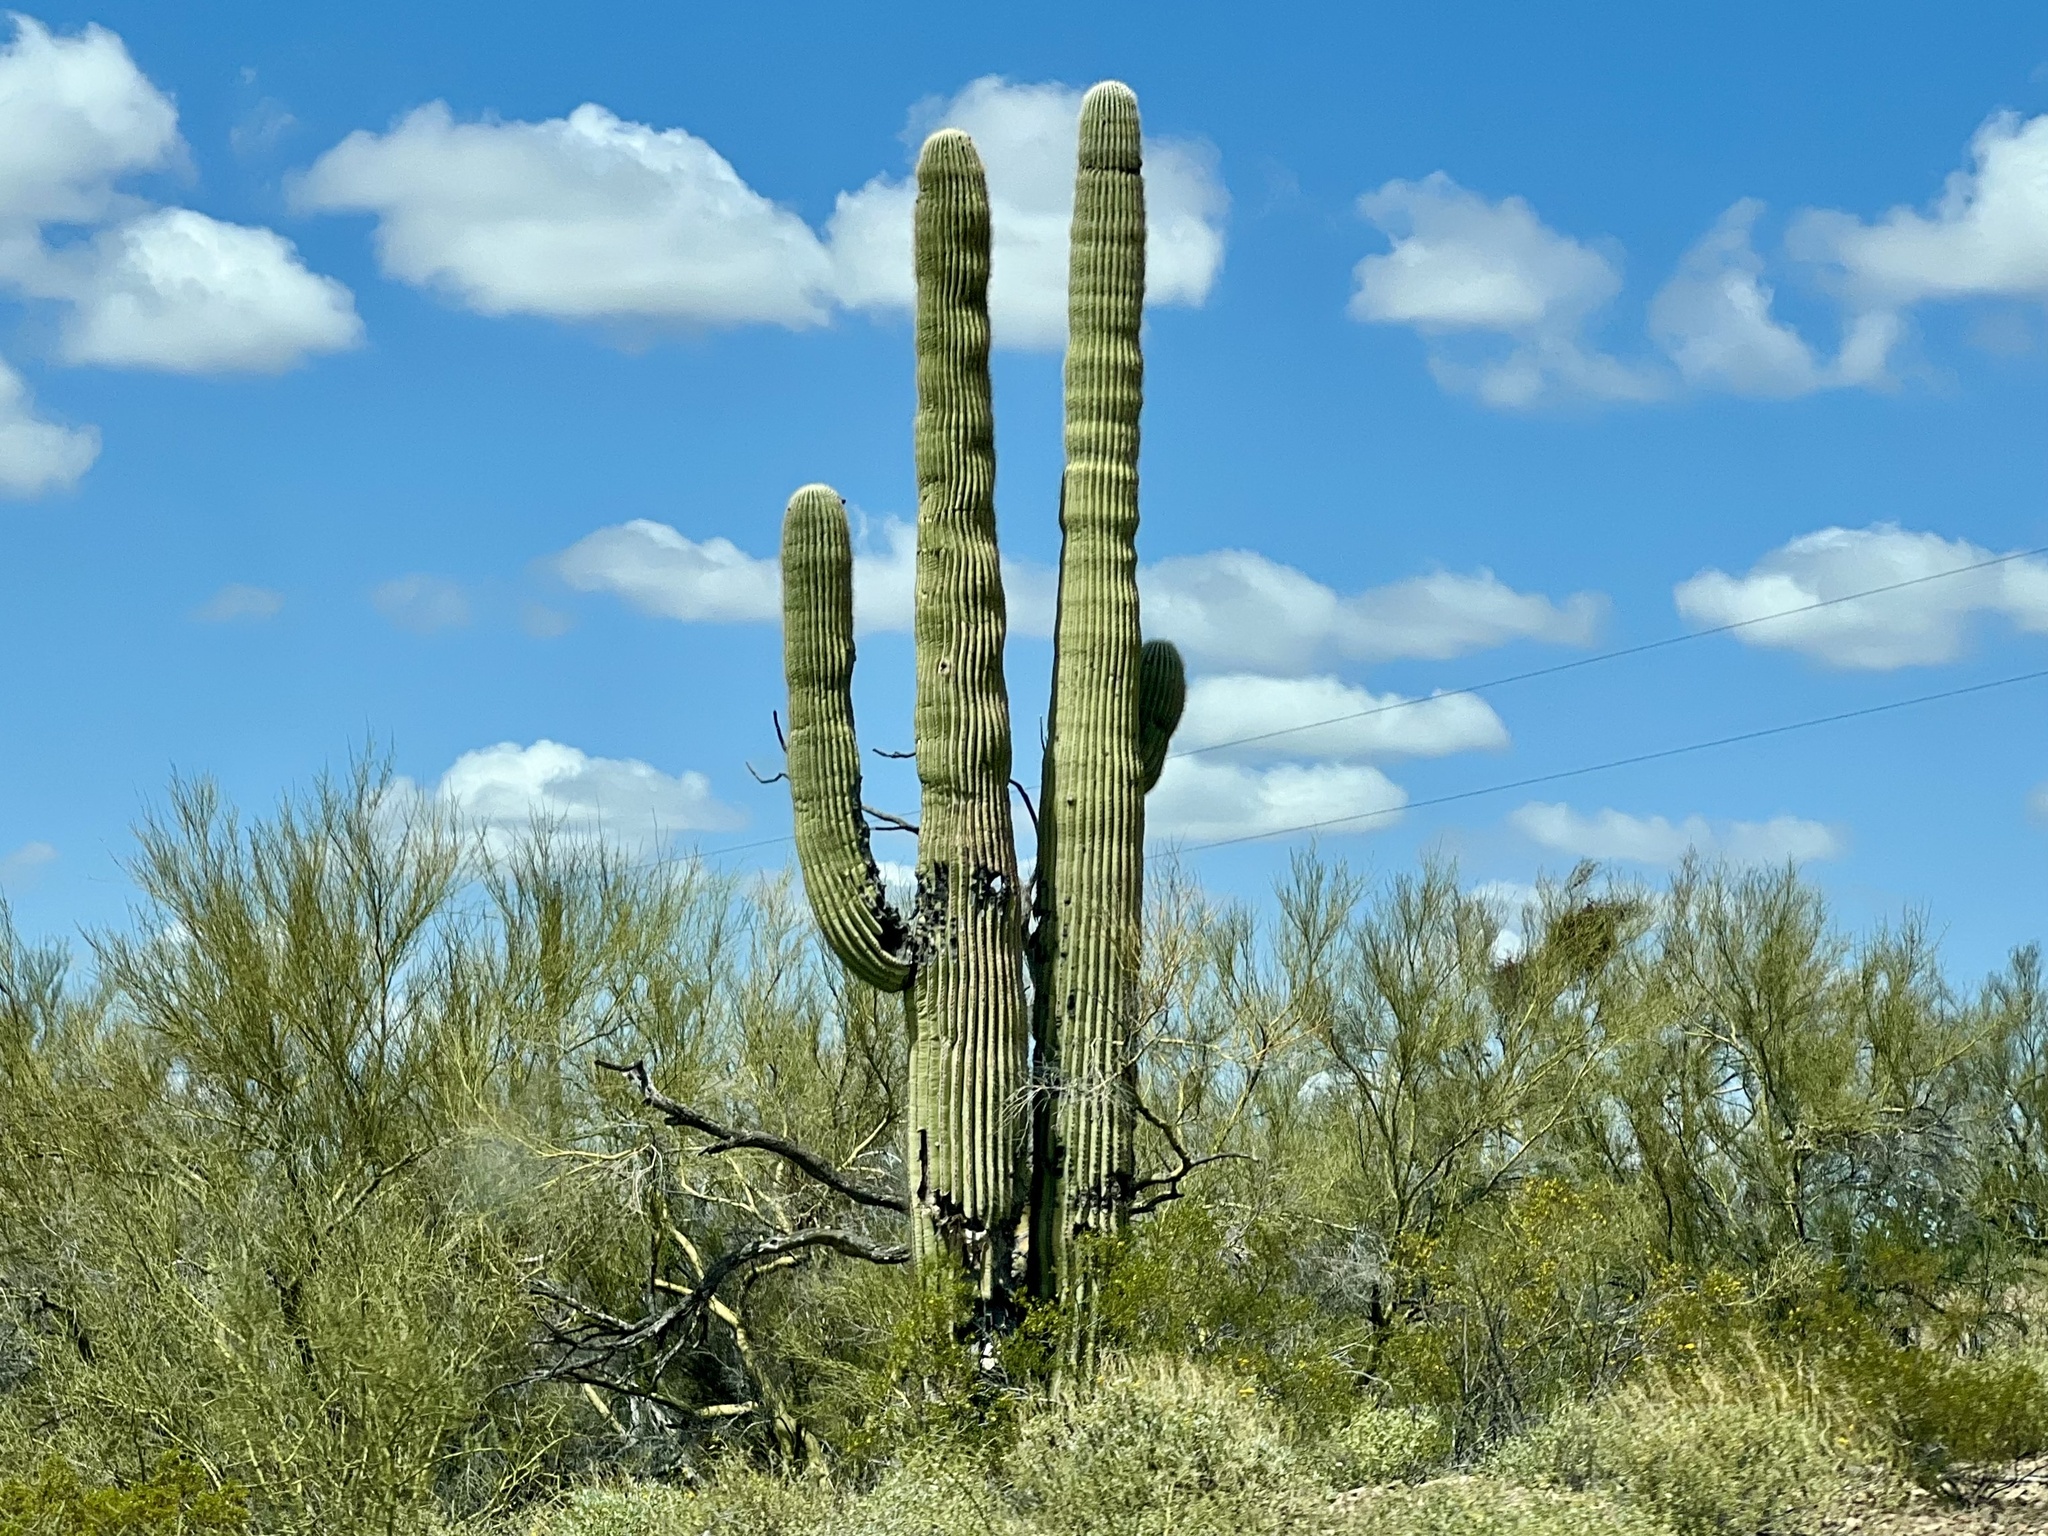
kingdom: Plantae
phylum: Tracheophyta
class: Magnoliopsida
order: Caryophyllales
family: Cactaceae
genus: Carnegiea
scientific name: Carnegiea gigantea
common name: Saguaro
